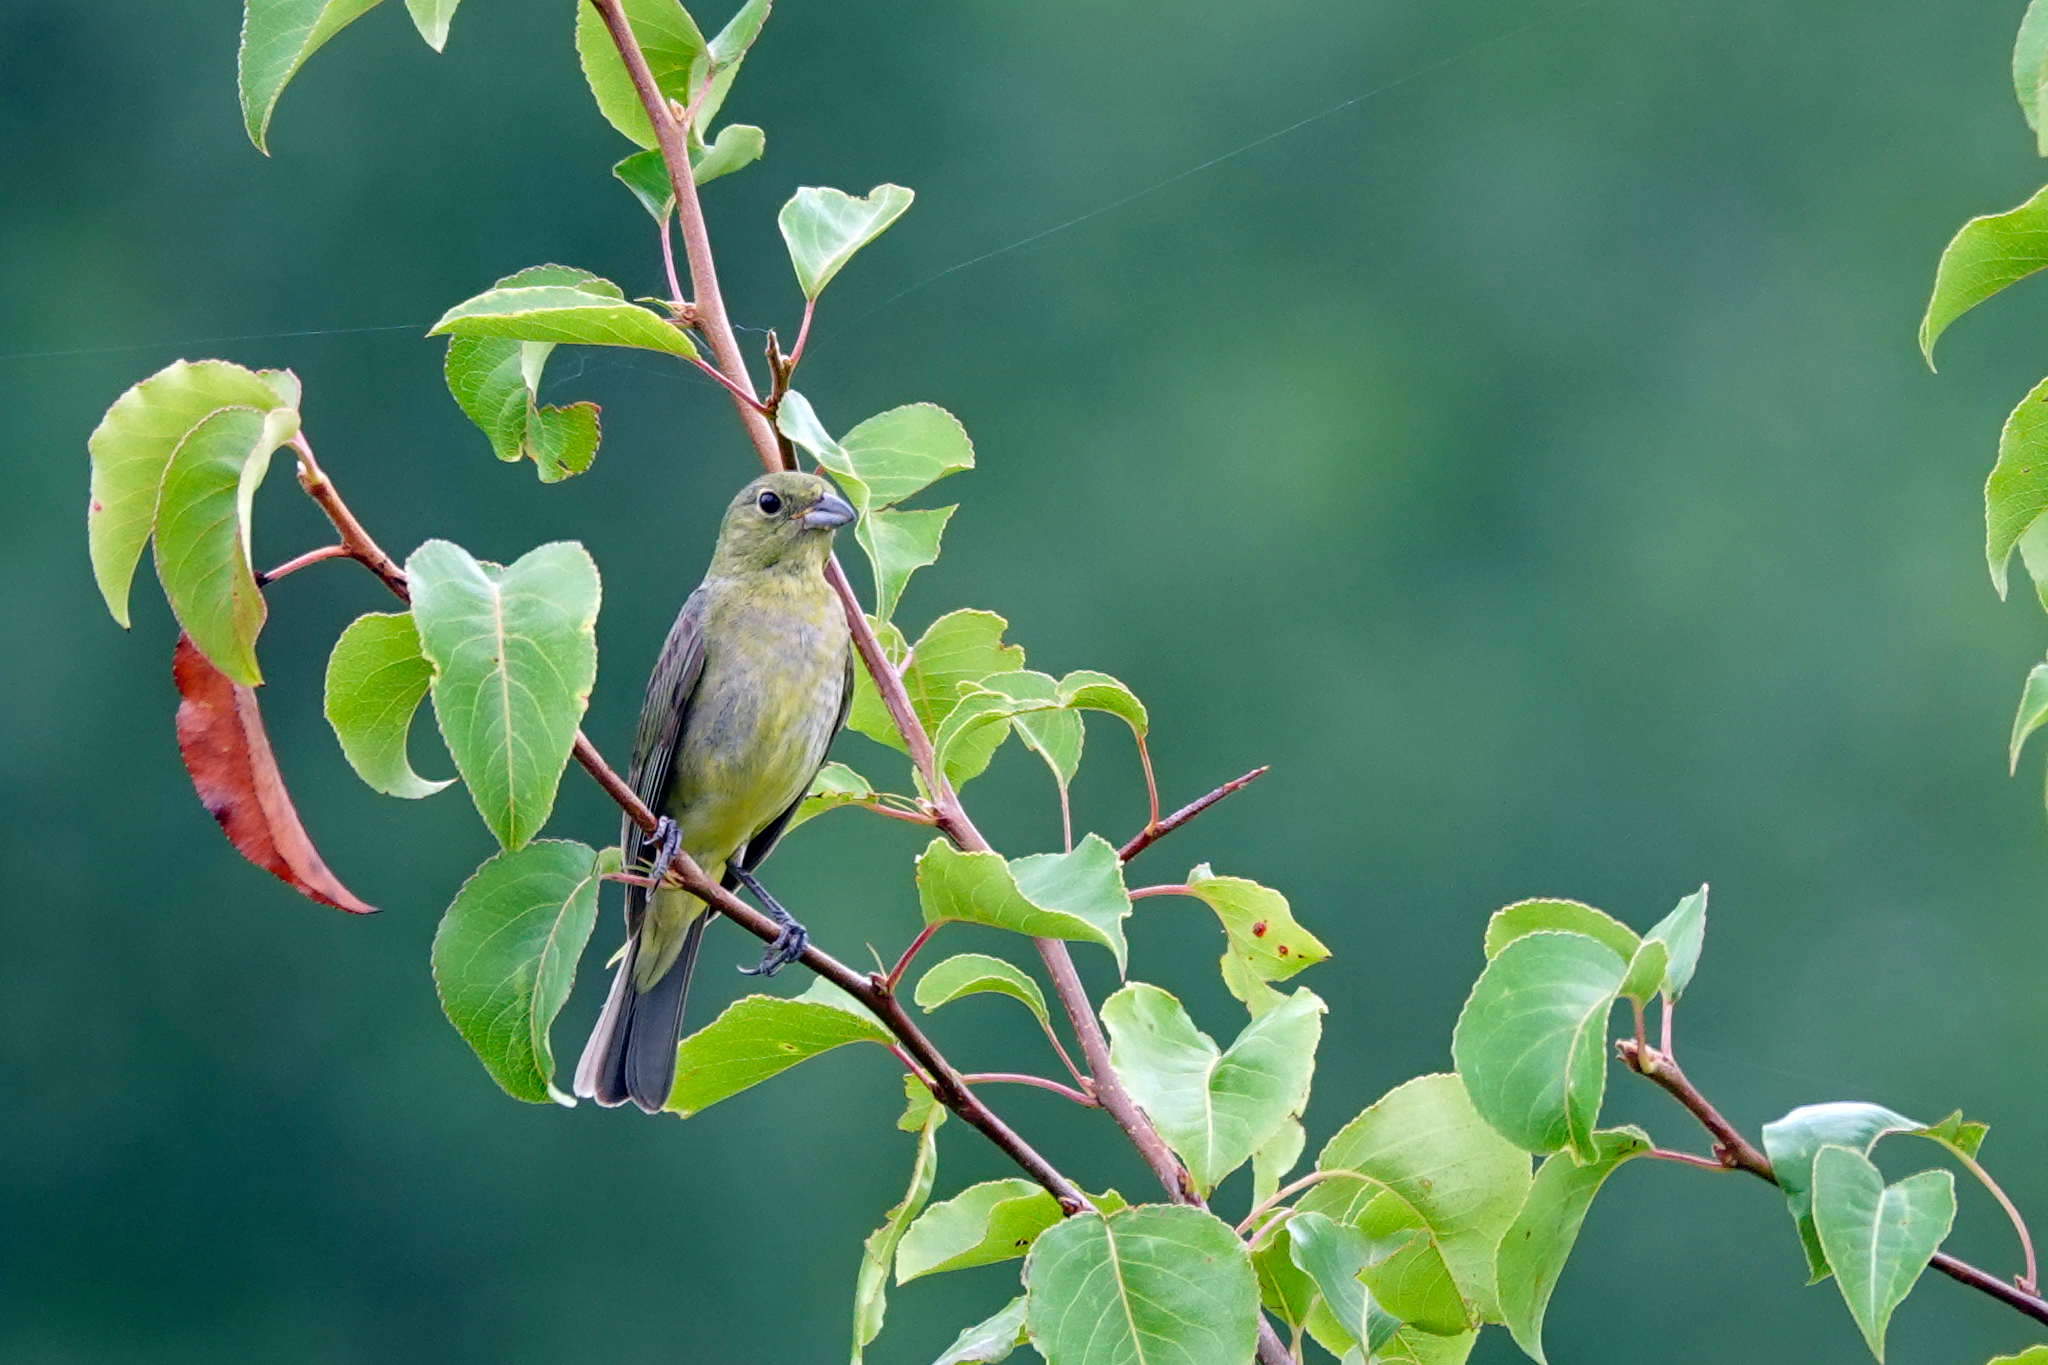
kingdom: Animalia
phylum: Chordata
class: Aves
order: Passeriformes
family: Cardinalidae
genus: Passerina
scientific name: Passerina ciris
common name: Painted bunting
